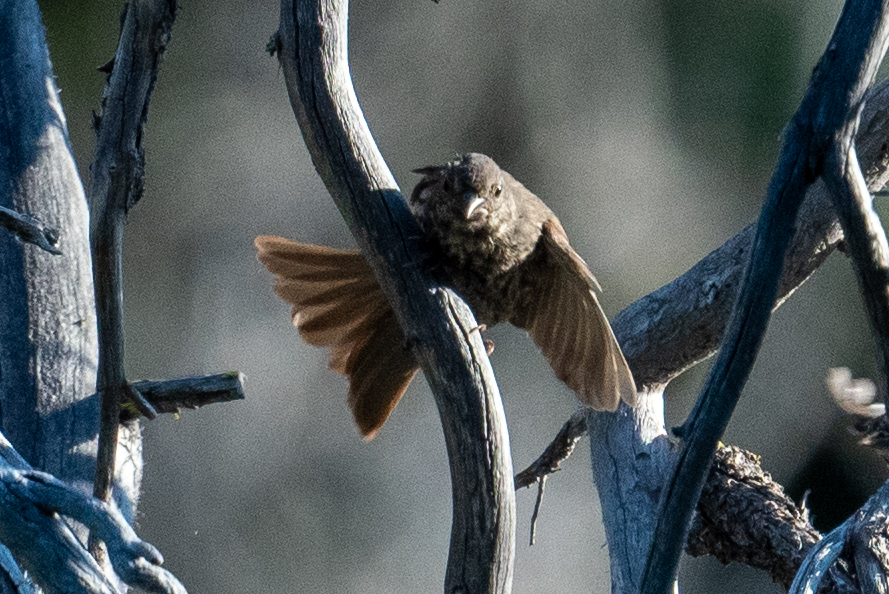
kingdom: Animalia
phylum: Chordata
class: Aves
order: Passeriformes
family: Passerellidae
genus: Passerella
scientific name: Passerella iliaca
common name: Fox sparrow
